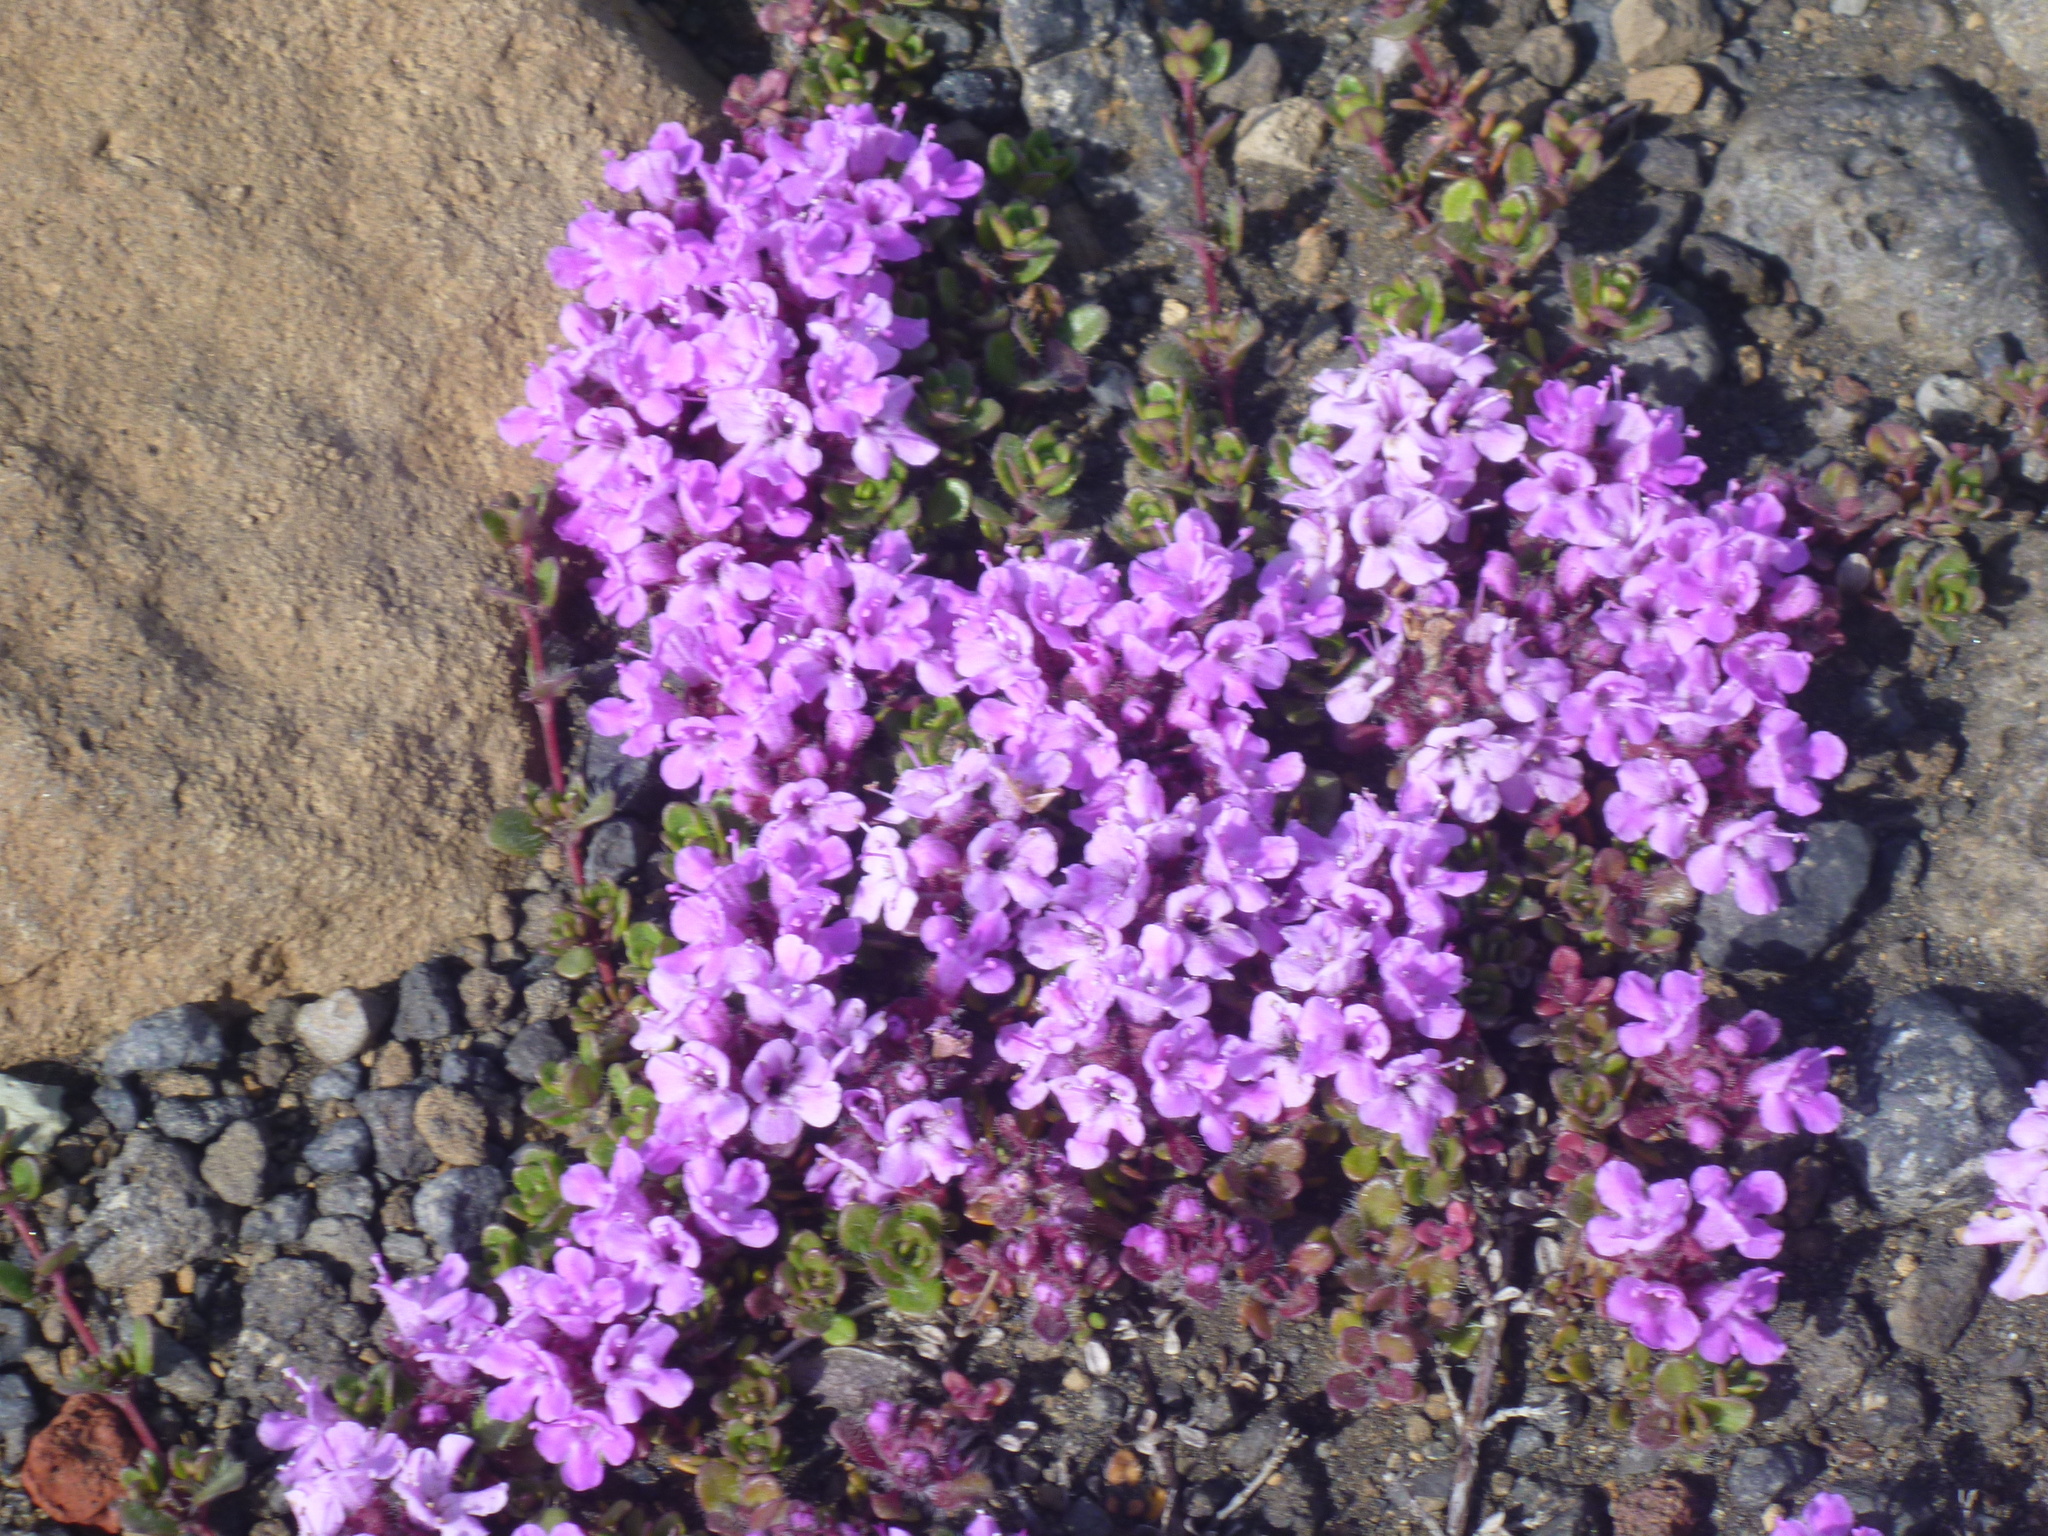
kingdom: Plantae
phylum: Tracheophyta
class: Magnoliopsida
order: Lamiales
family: Lamiaceae
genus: Thymus
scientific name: Thymus praecox
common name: Wild thyme
